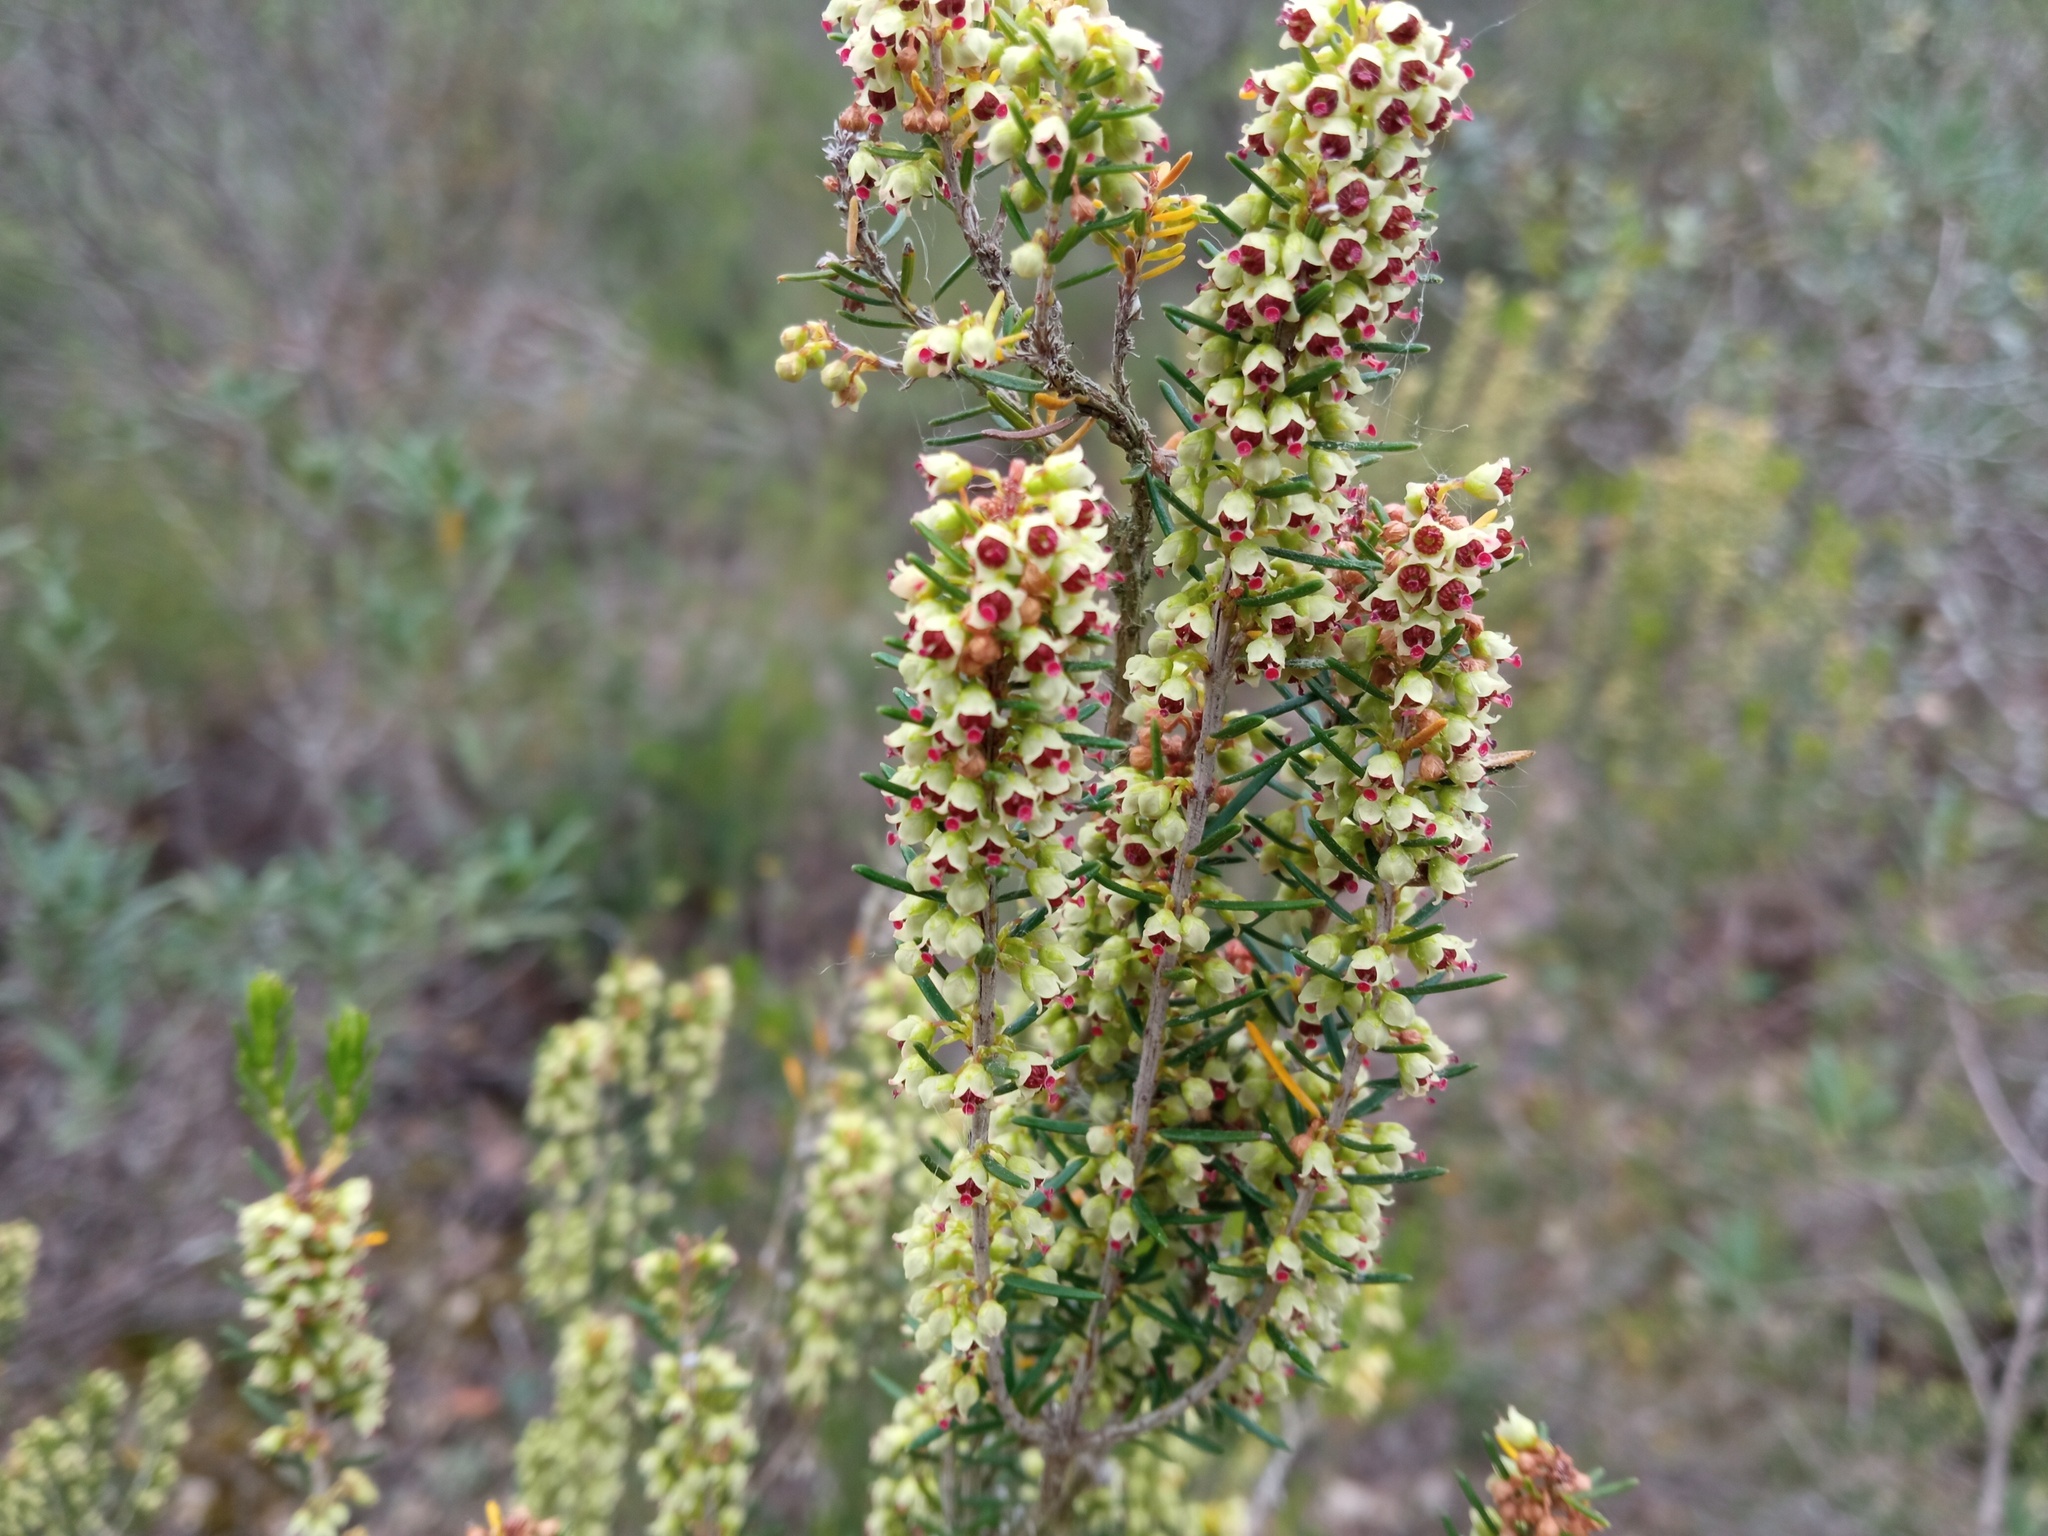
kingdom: Plantae
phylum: Tracheophyta
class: Magnoliopsida
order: Ericales
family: Ericaceae
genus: Erica
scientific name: Erica scoparia
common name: Green heather
